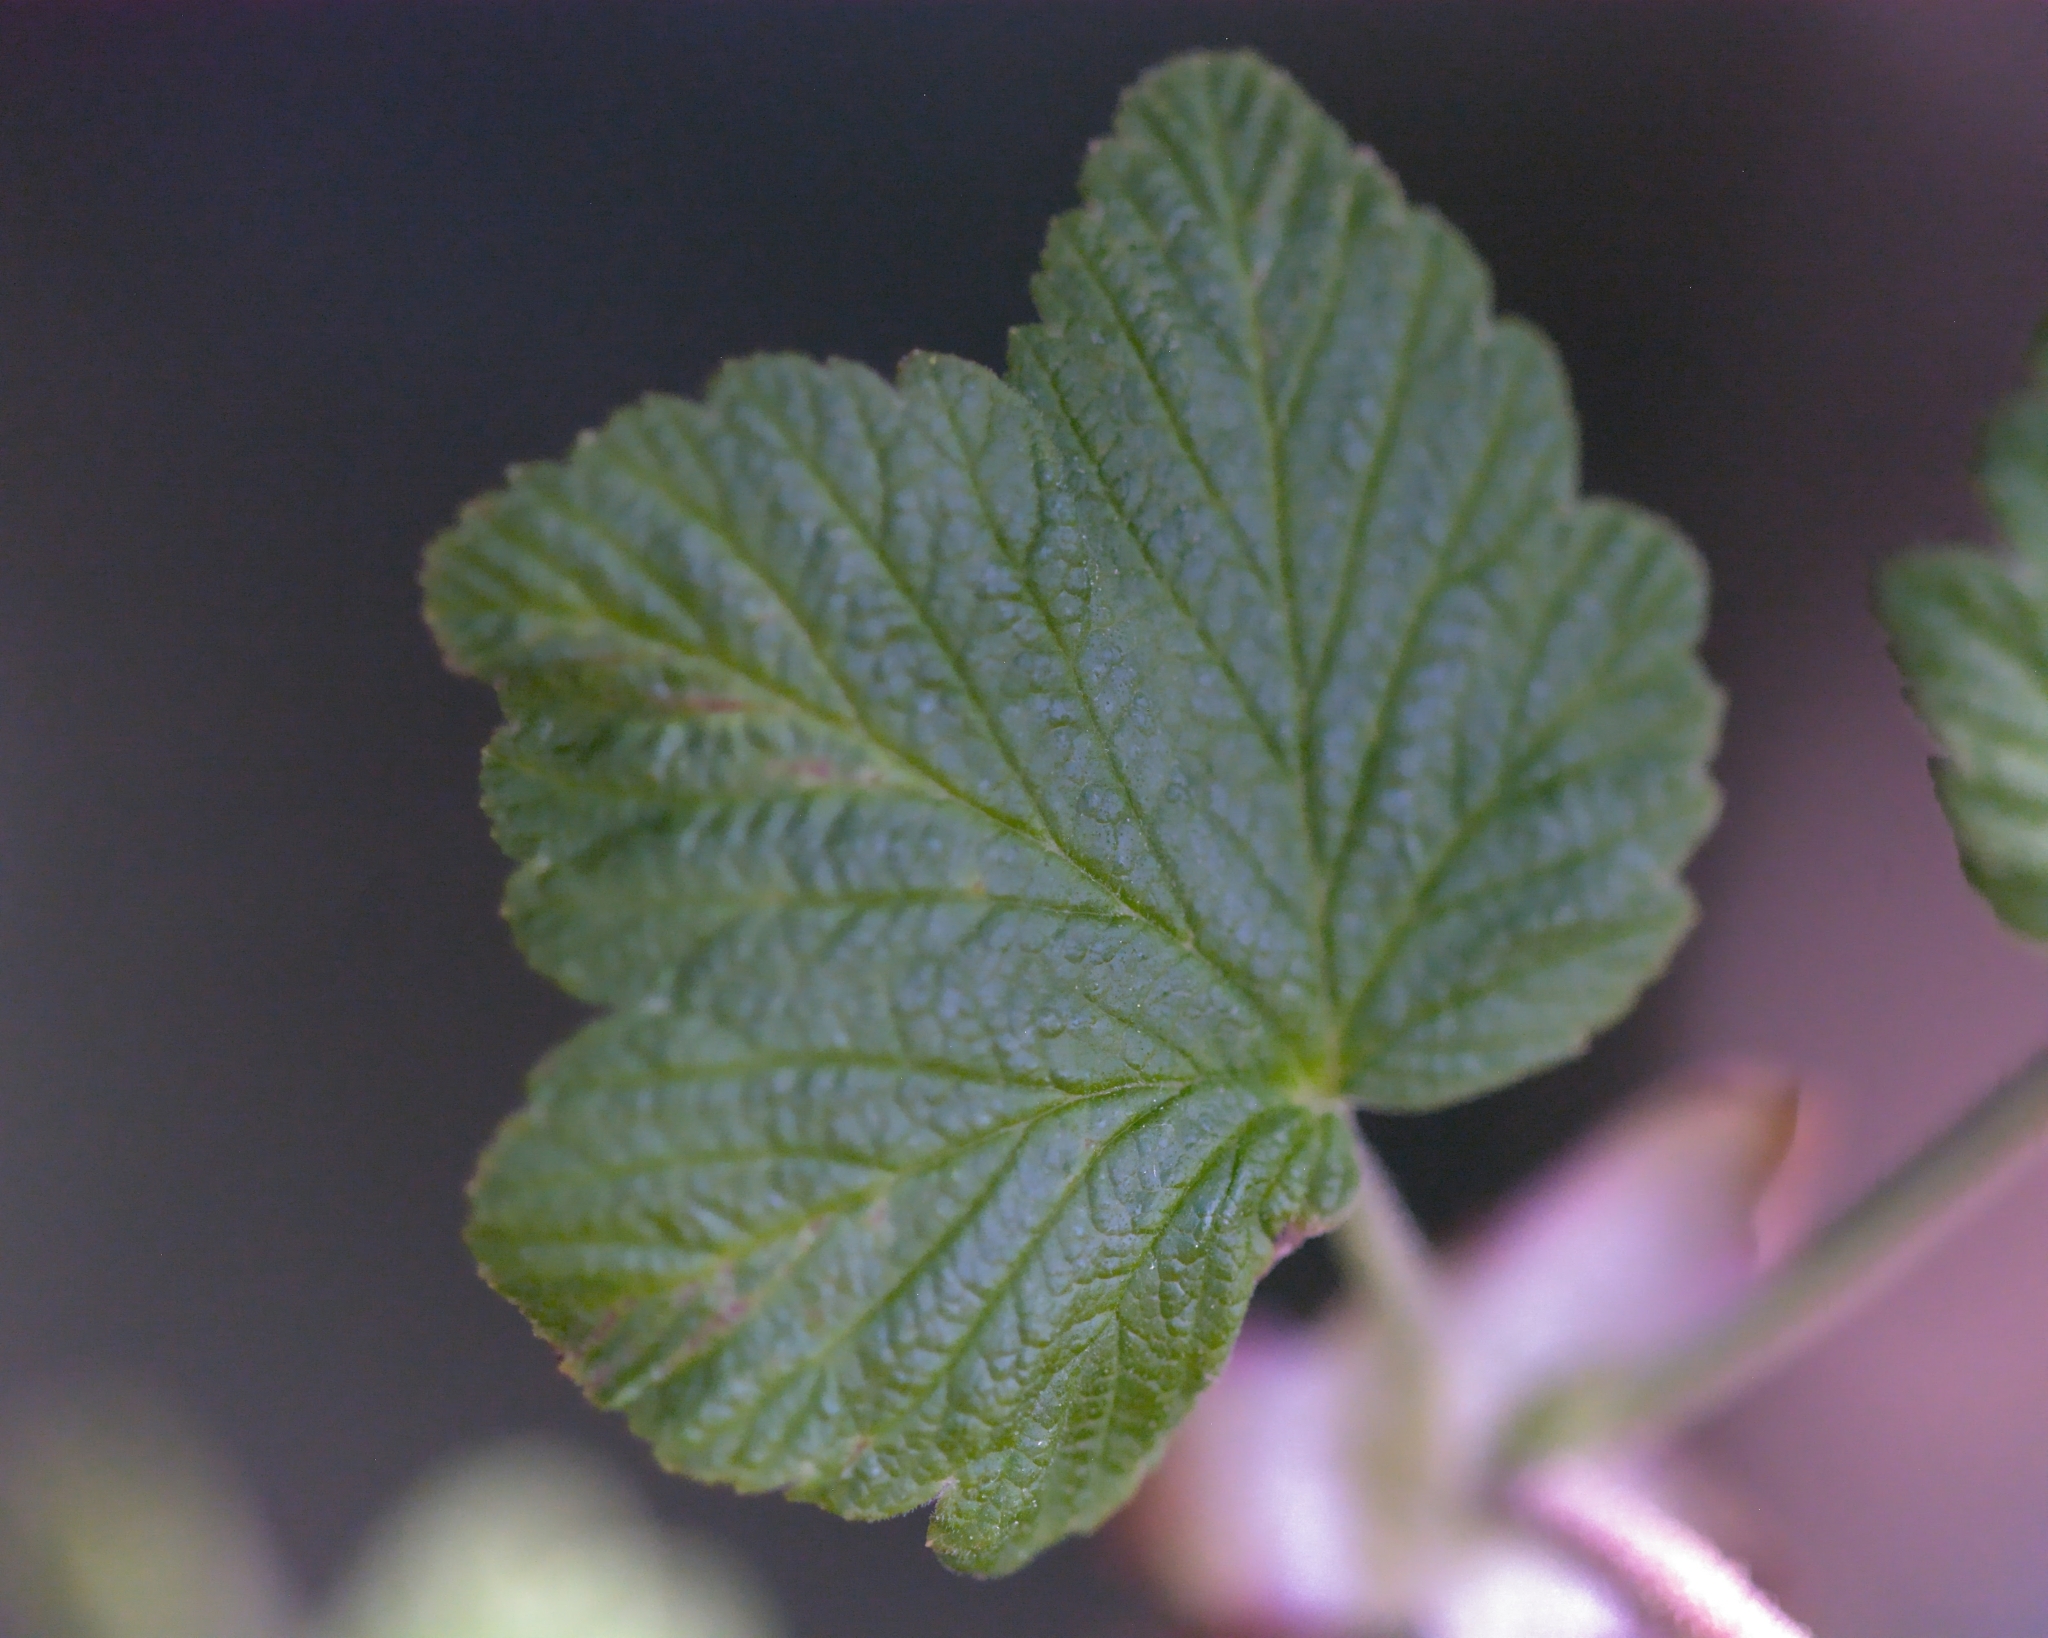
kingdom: Plantae
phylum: Tracheophyta
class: Magnoliopsida
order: Saxifragales
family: Grossulariaceae
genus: Ribes
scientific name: Ribes sanguineum
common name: Flowering currant
